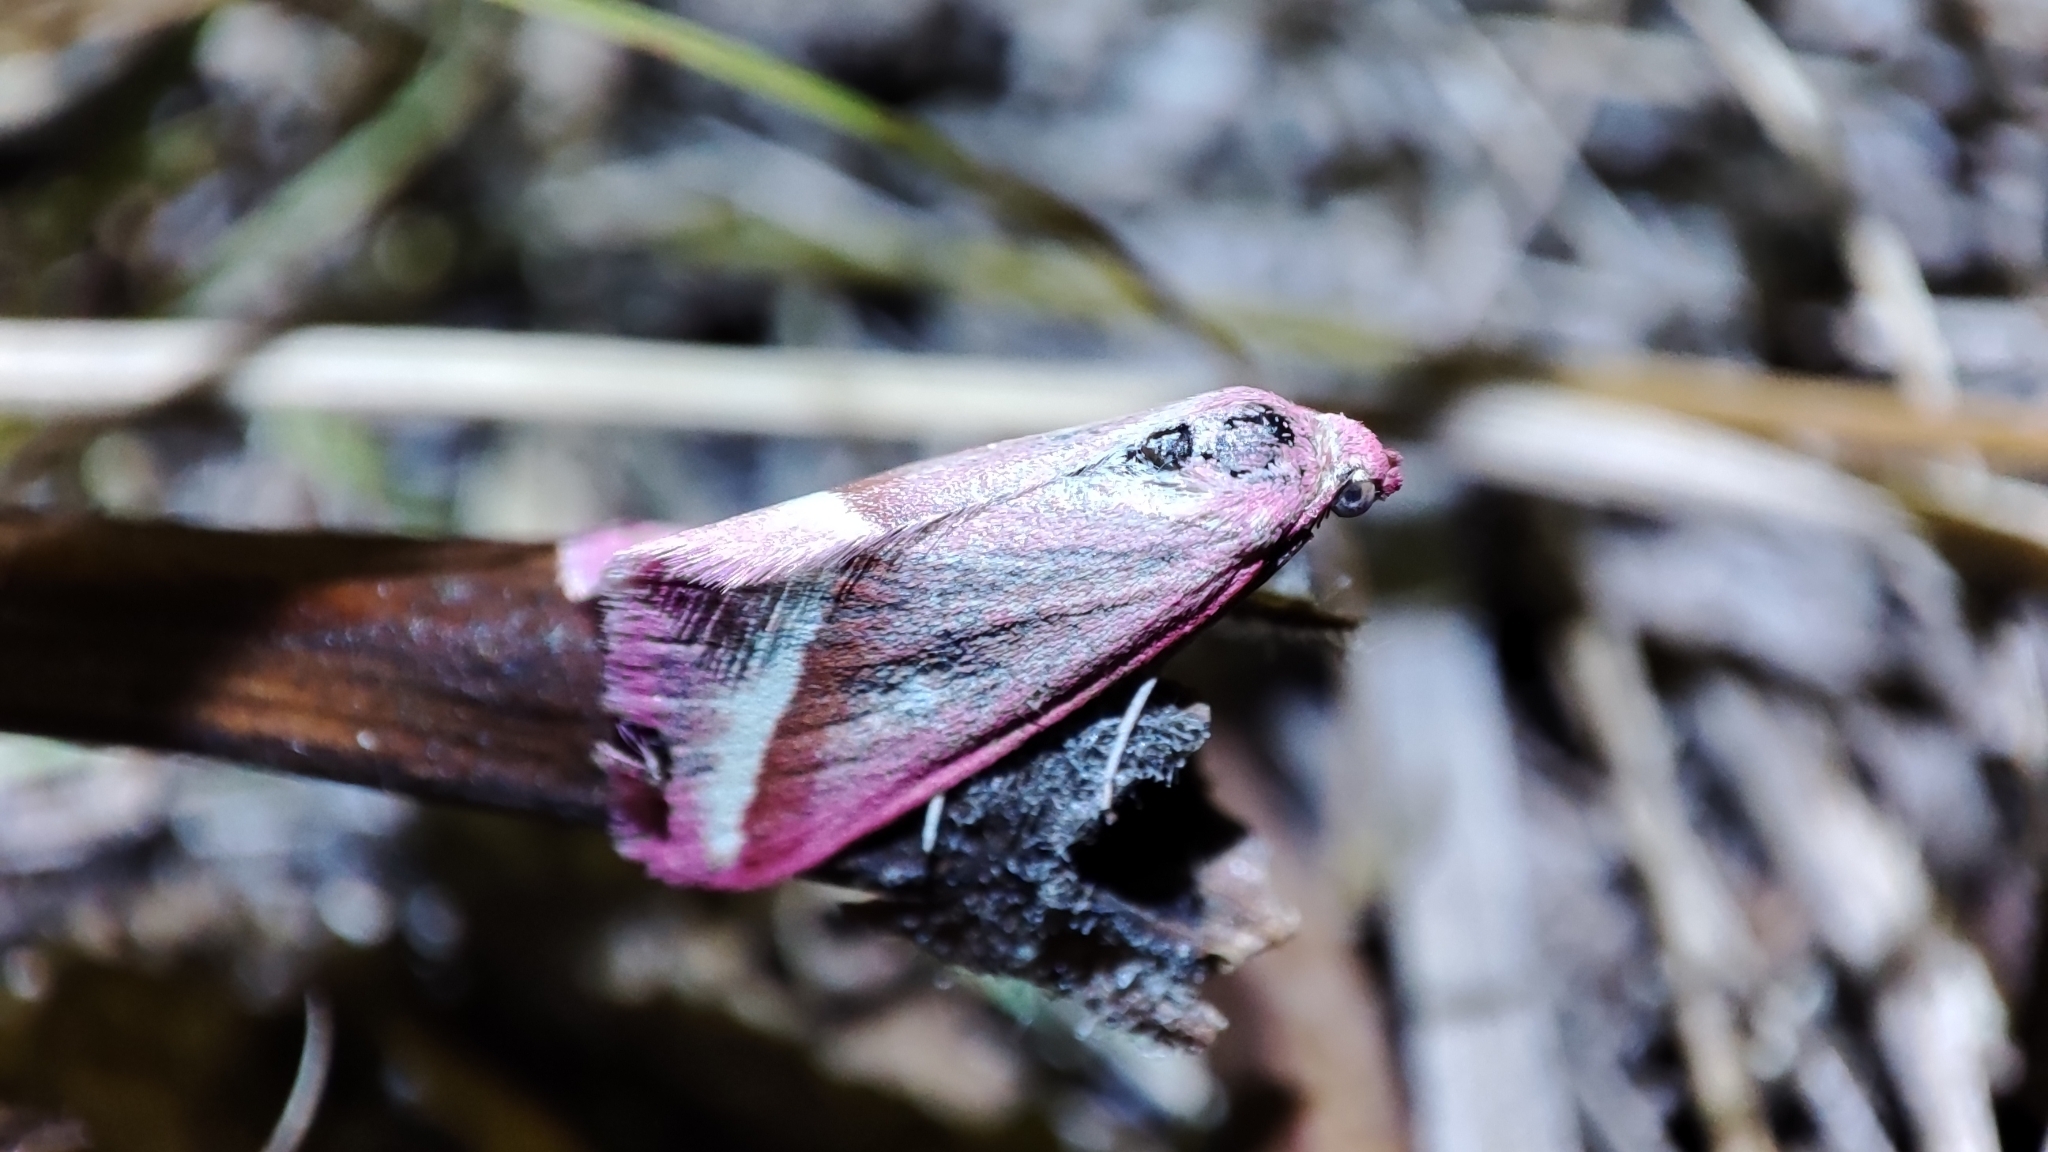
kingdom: Animalia
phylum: Arthropoda
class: Insecta
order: Lepidoptera
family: Geometridae
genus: Casilda
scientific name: Casilda antophilaria
